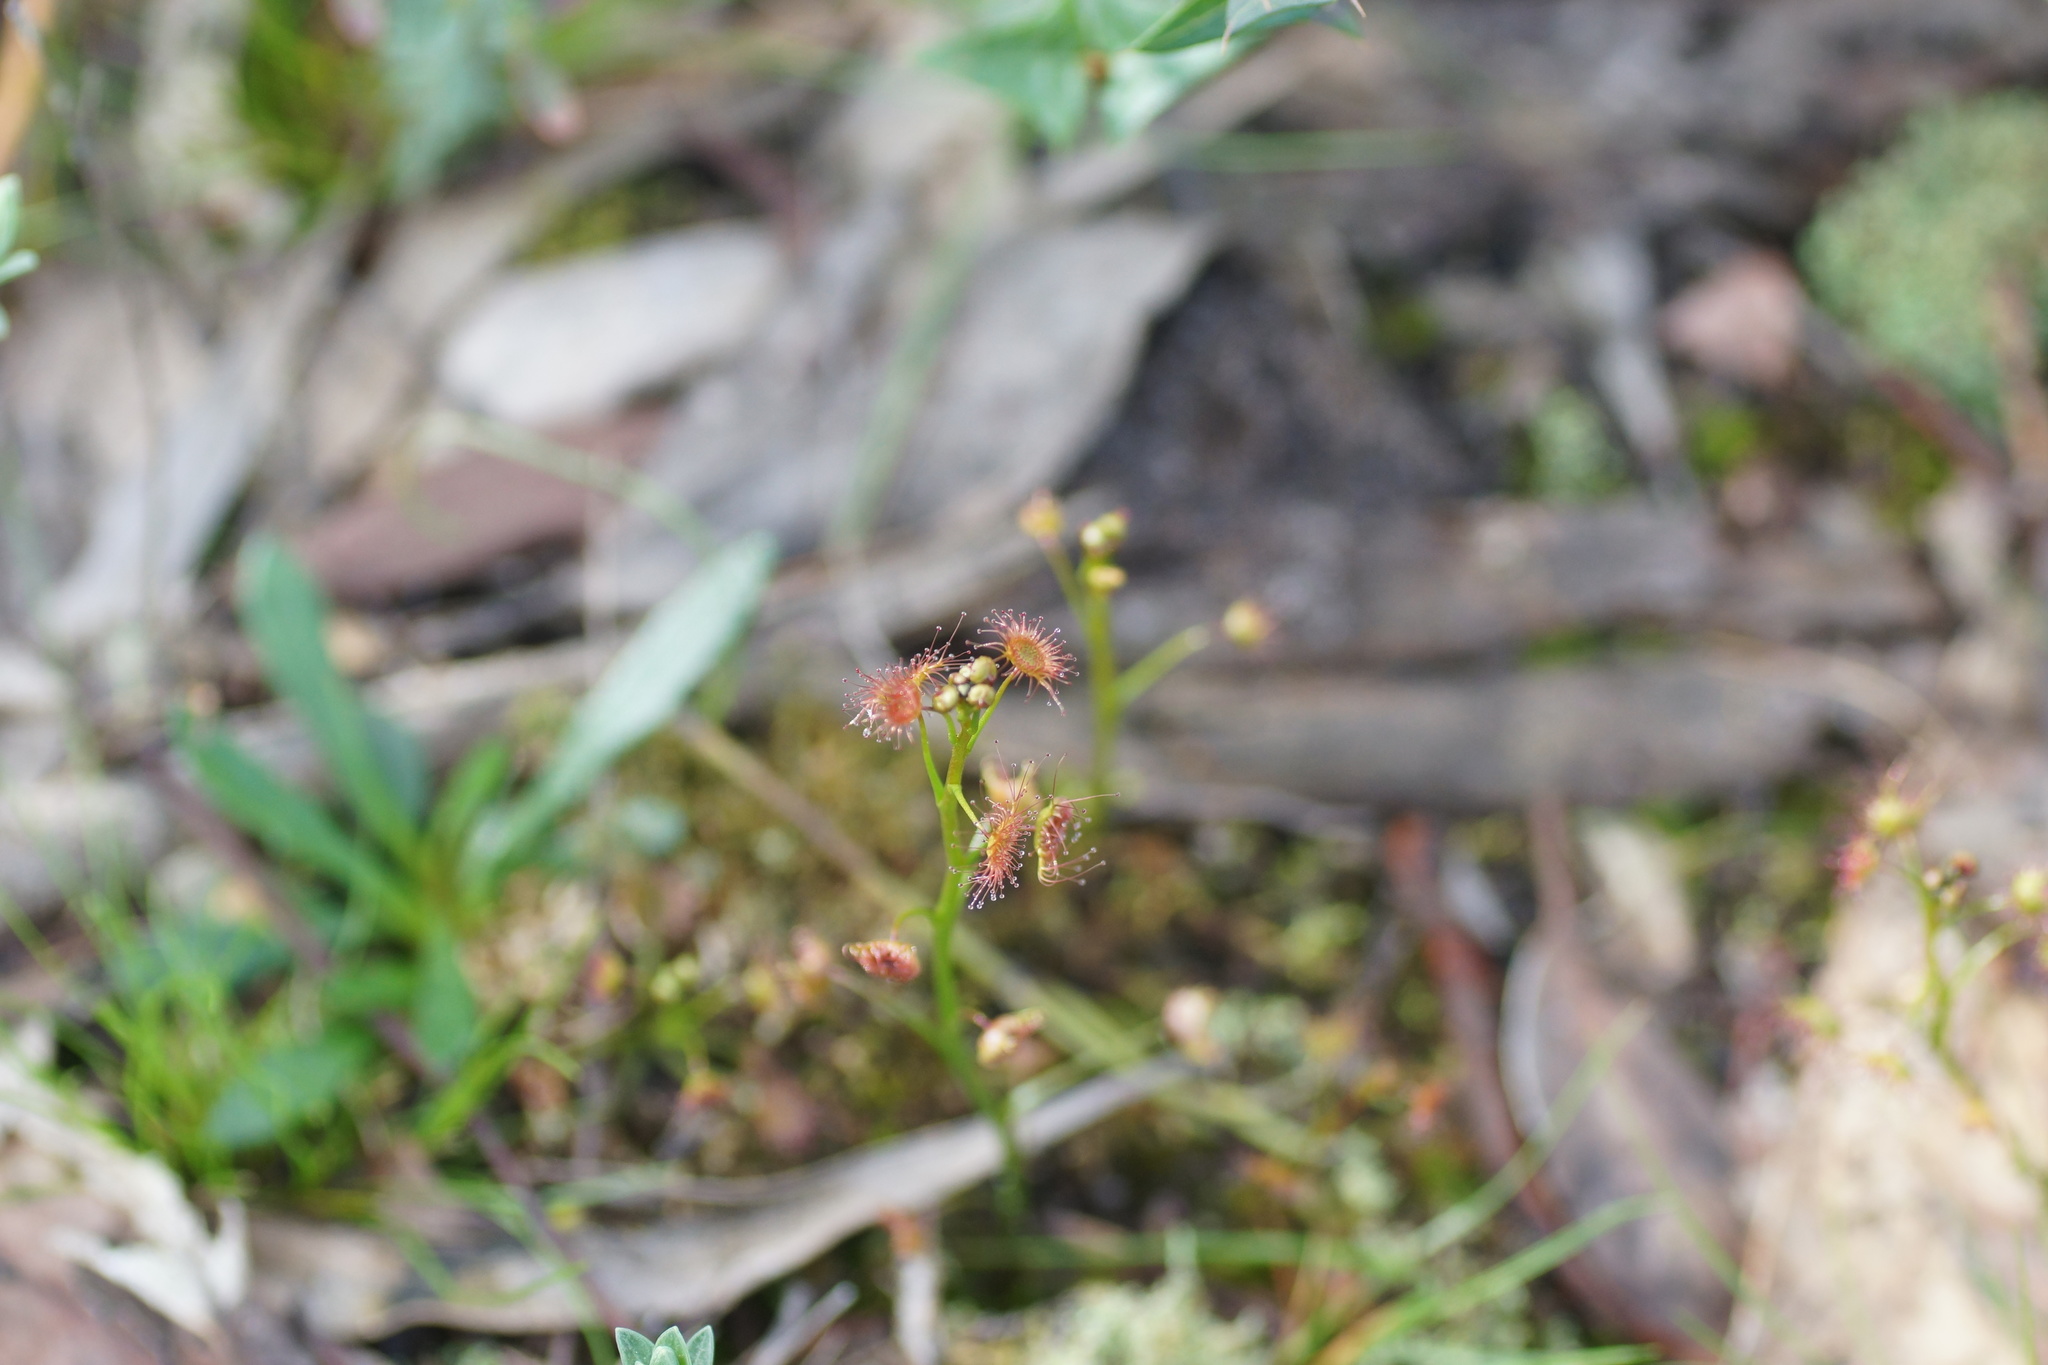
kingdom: Plantae
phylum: Tracheophyta
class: Magnoliopsida
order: Caryophyllales
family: Droseraceae
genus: Drosera
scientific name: Drosera peltata
